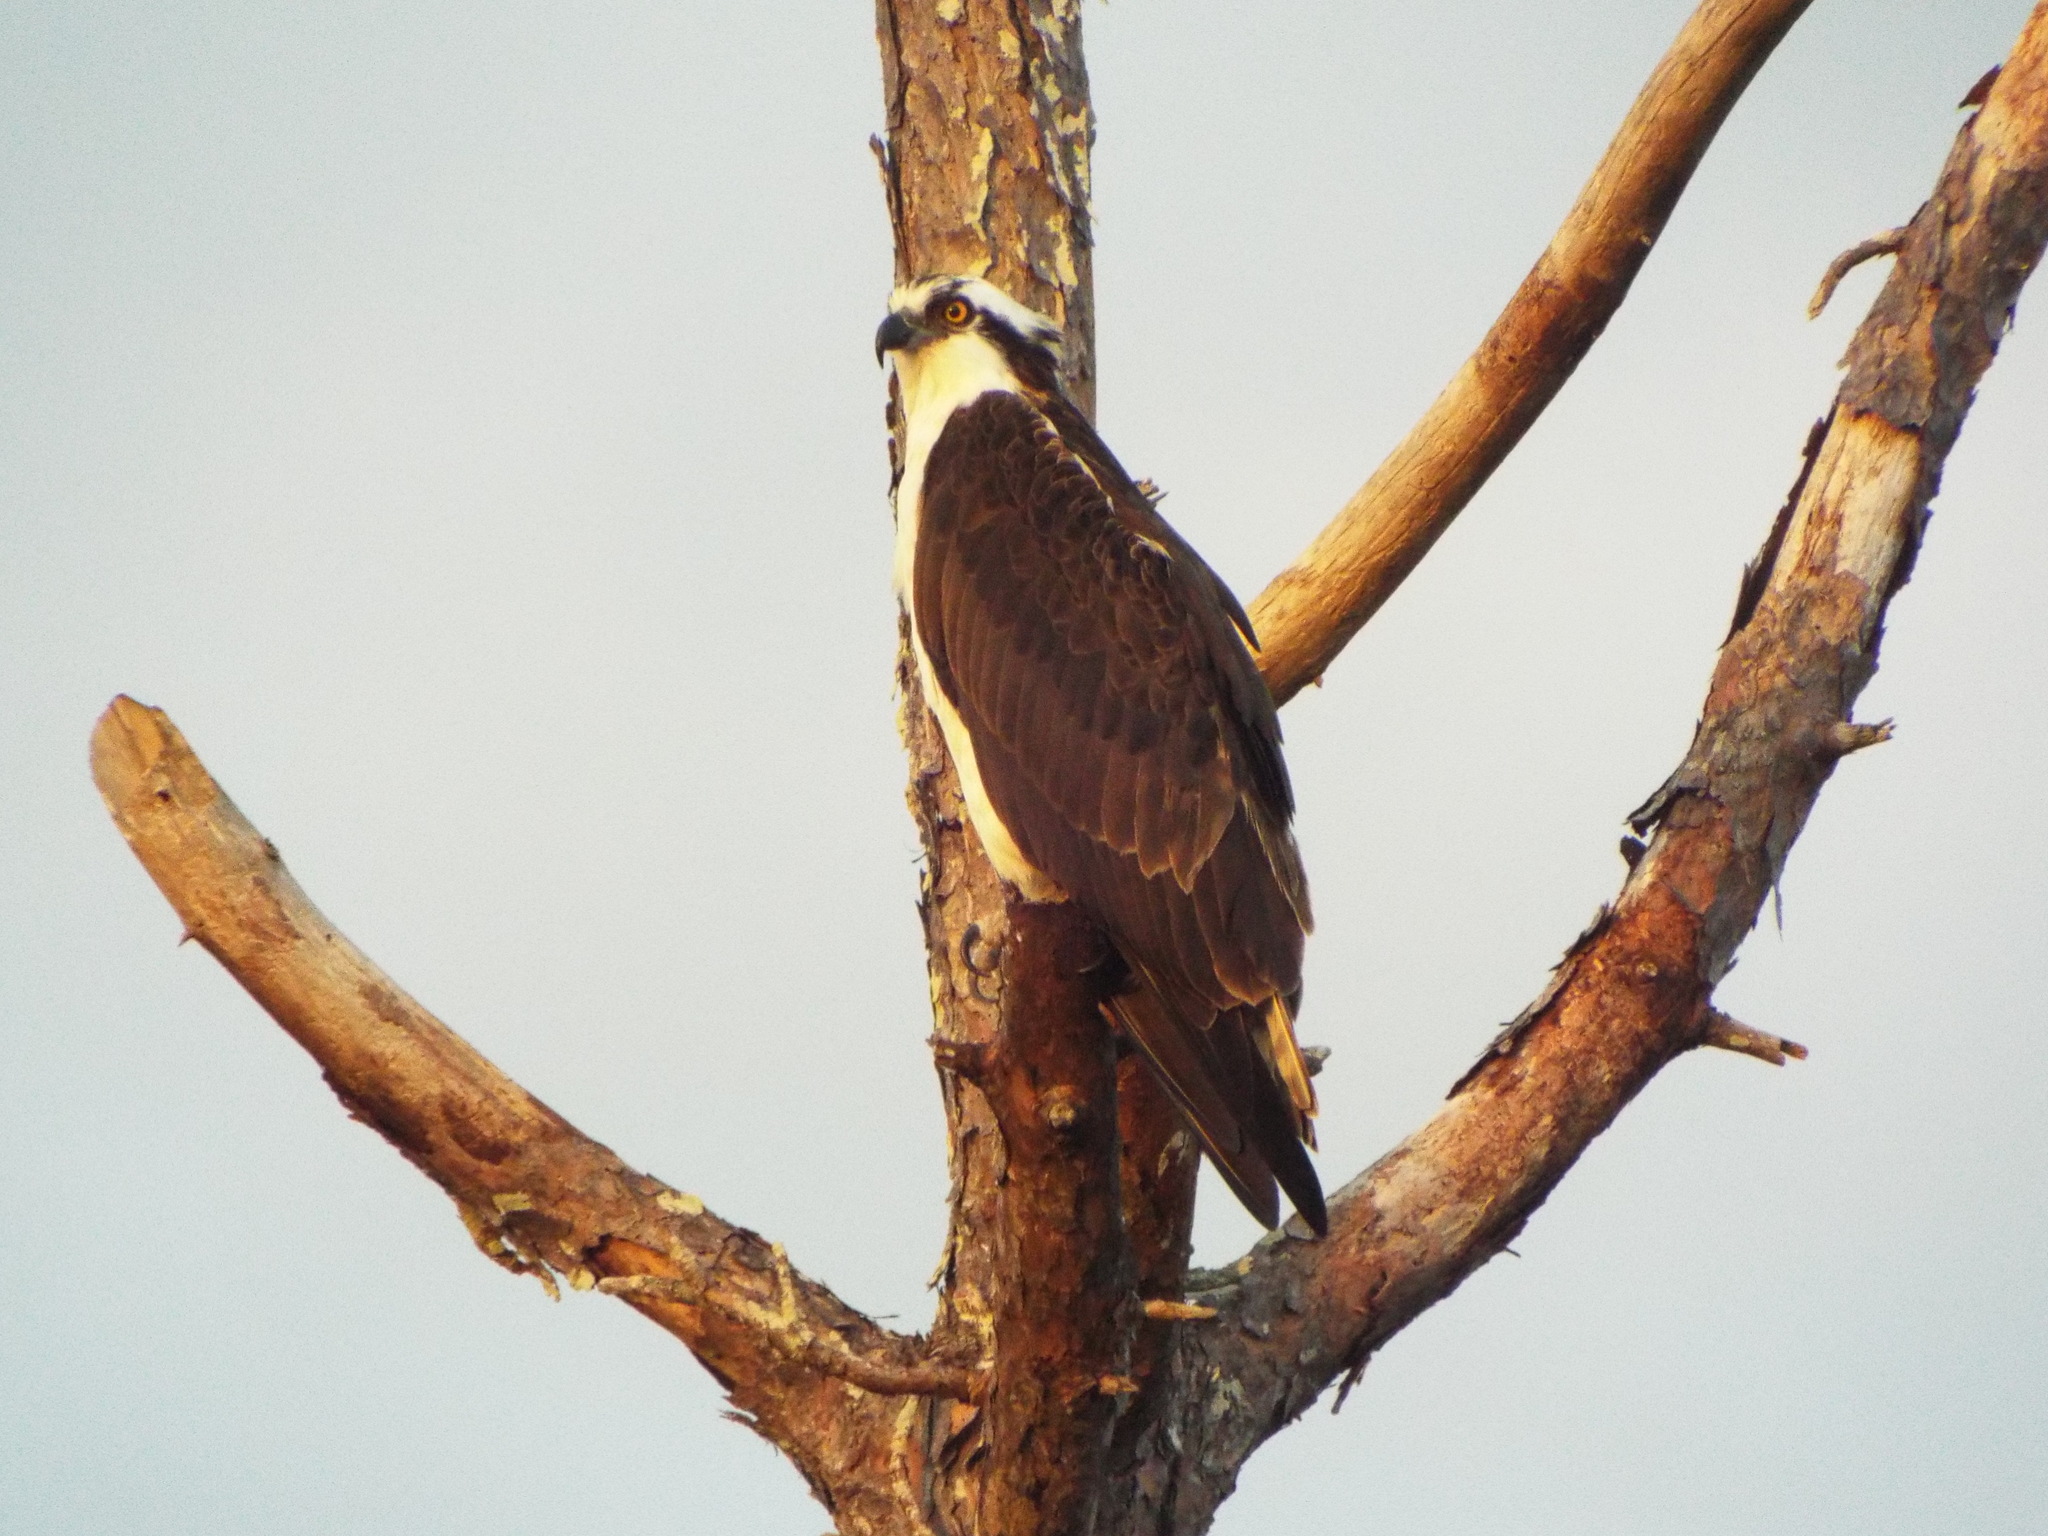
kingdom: Animalia
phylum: Chordata
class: Aves
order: Accipitriformes
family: Pandionidae
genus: Pandion
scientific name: Pandion haliaetus
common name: Osprey
